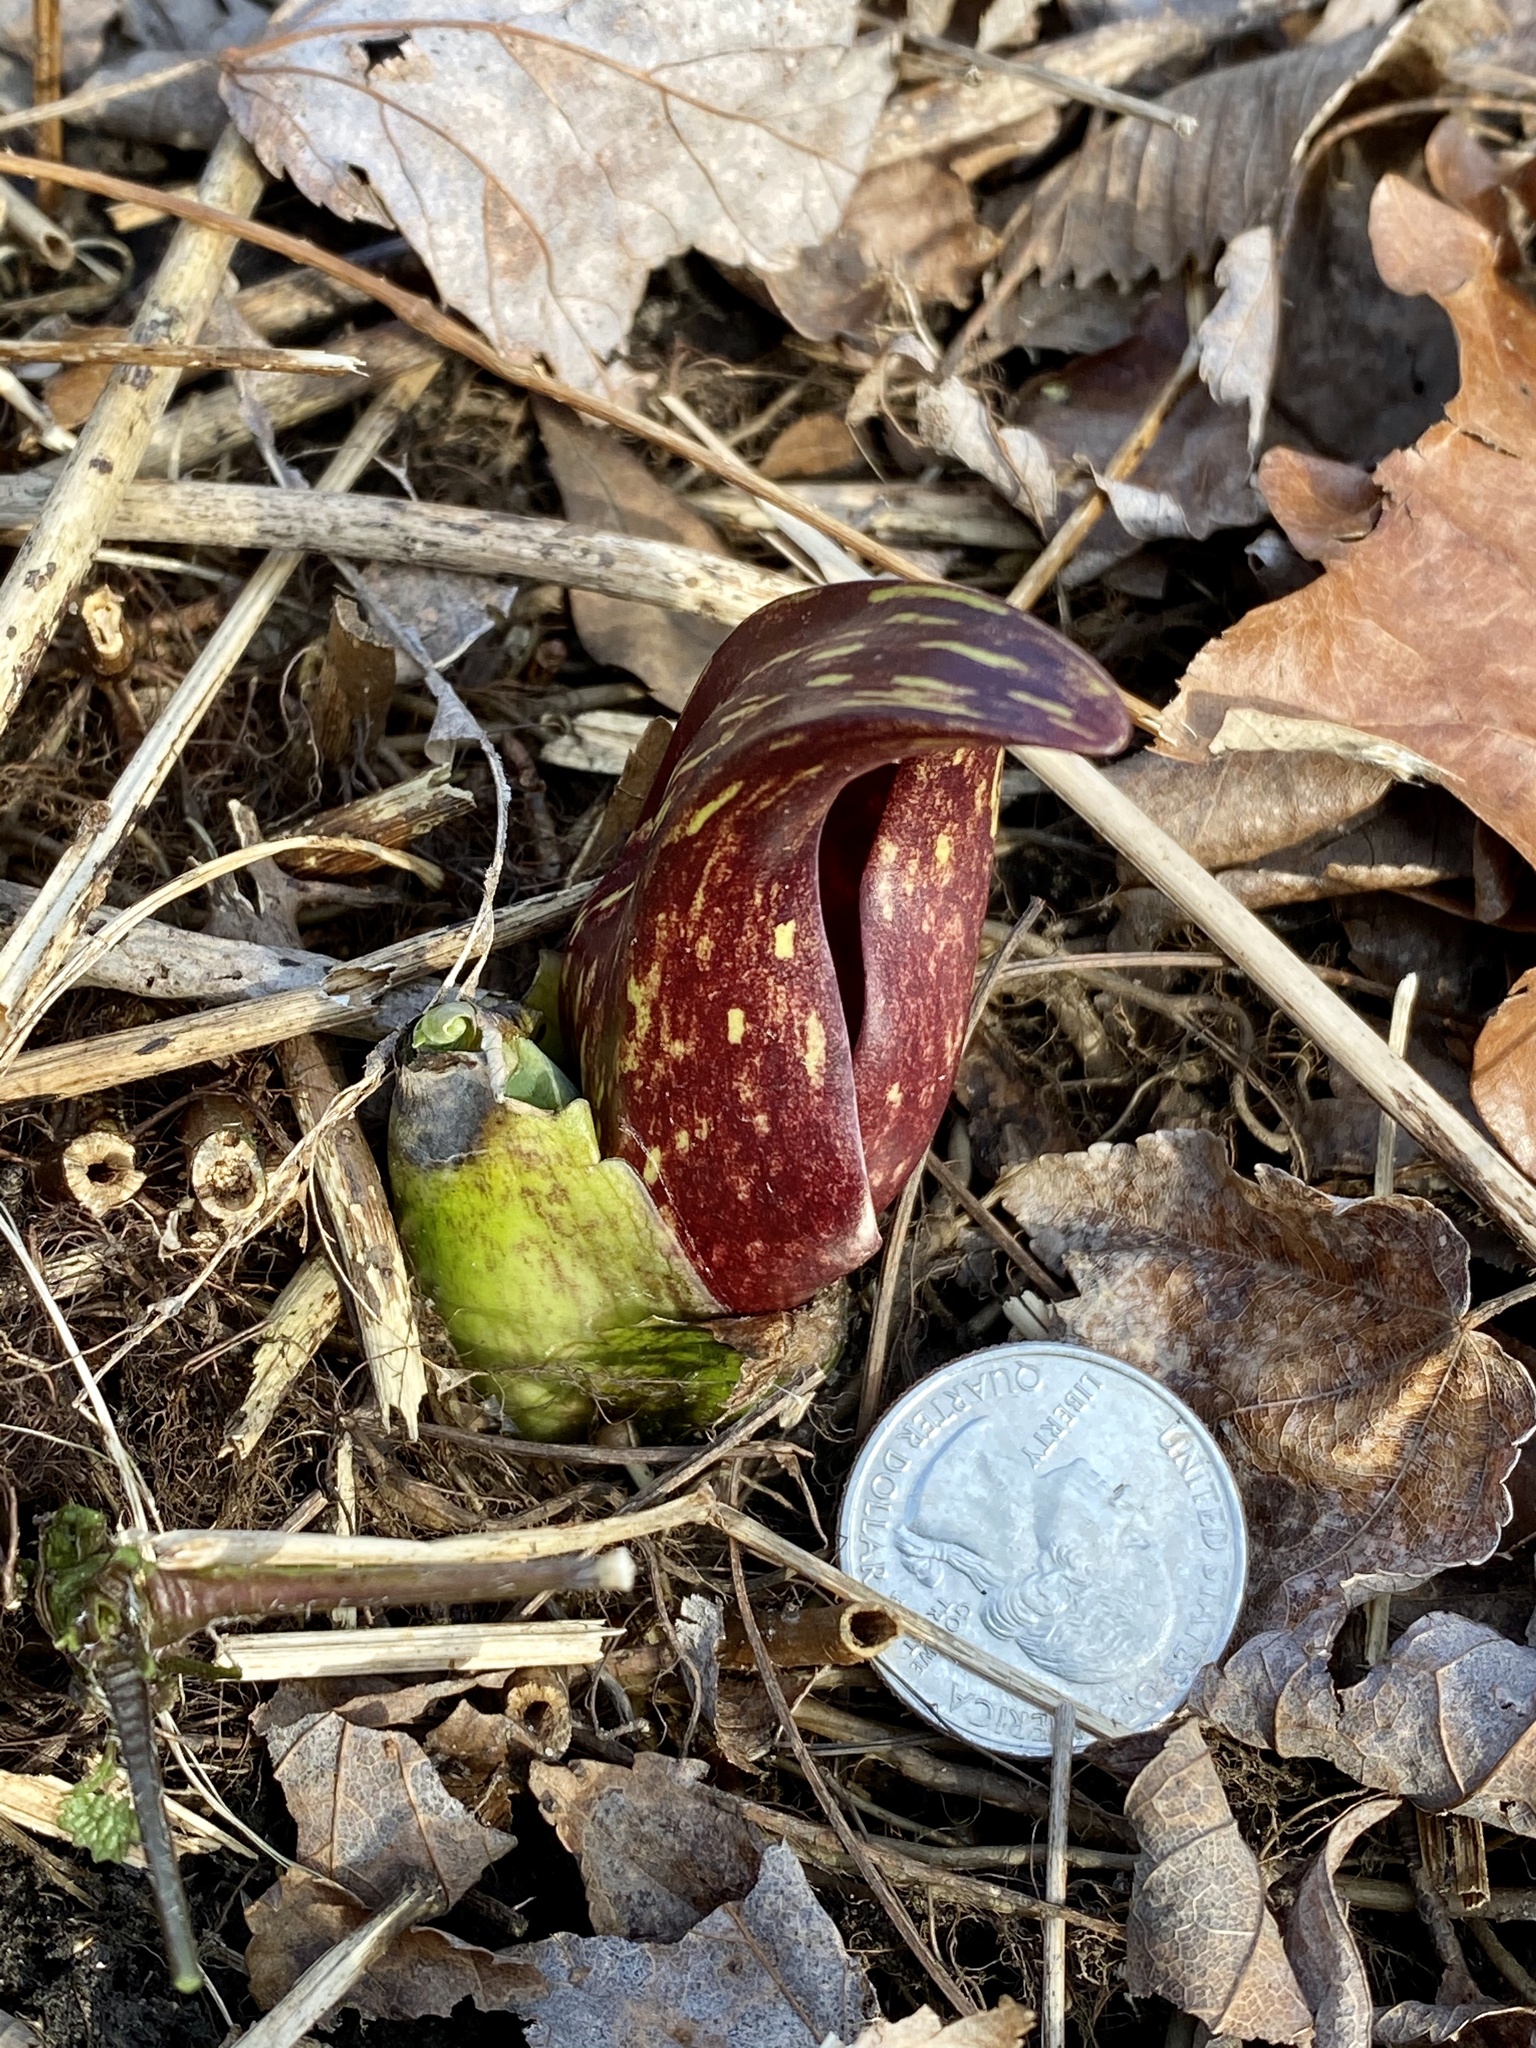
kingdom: Plantae
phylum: Tracheophyta
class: Liliopsida
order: Alismatales
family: Araceae
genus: Symplocarpus
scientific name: Symplocarpus foetidus
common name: Eastern skunk cabbage
